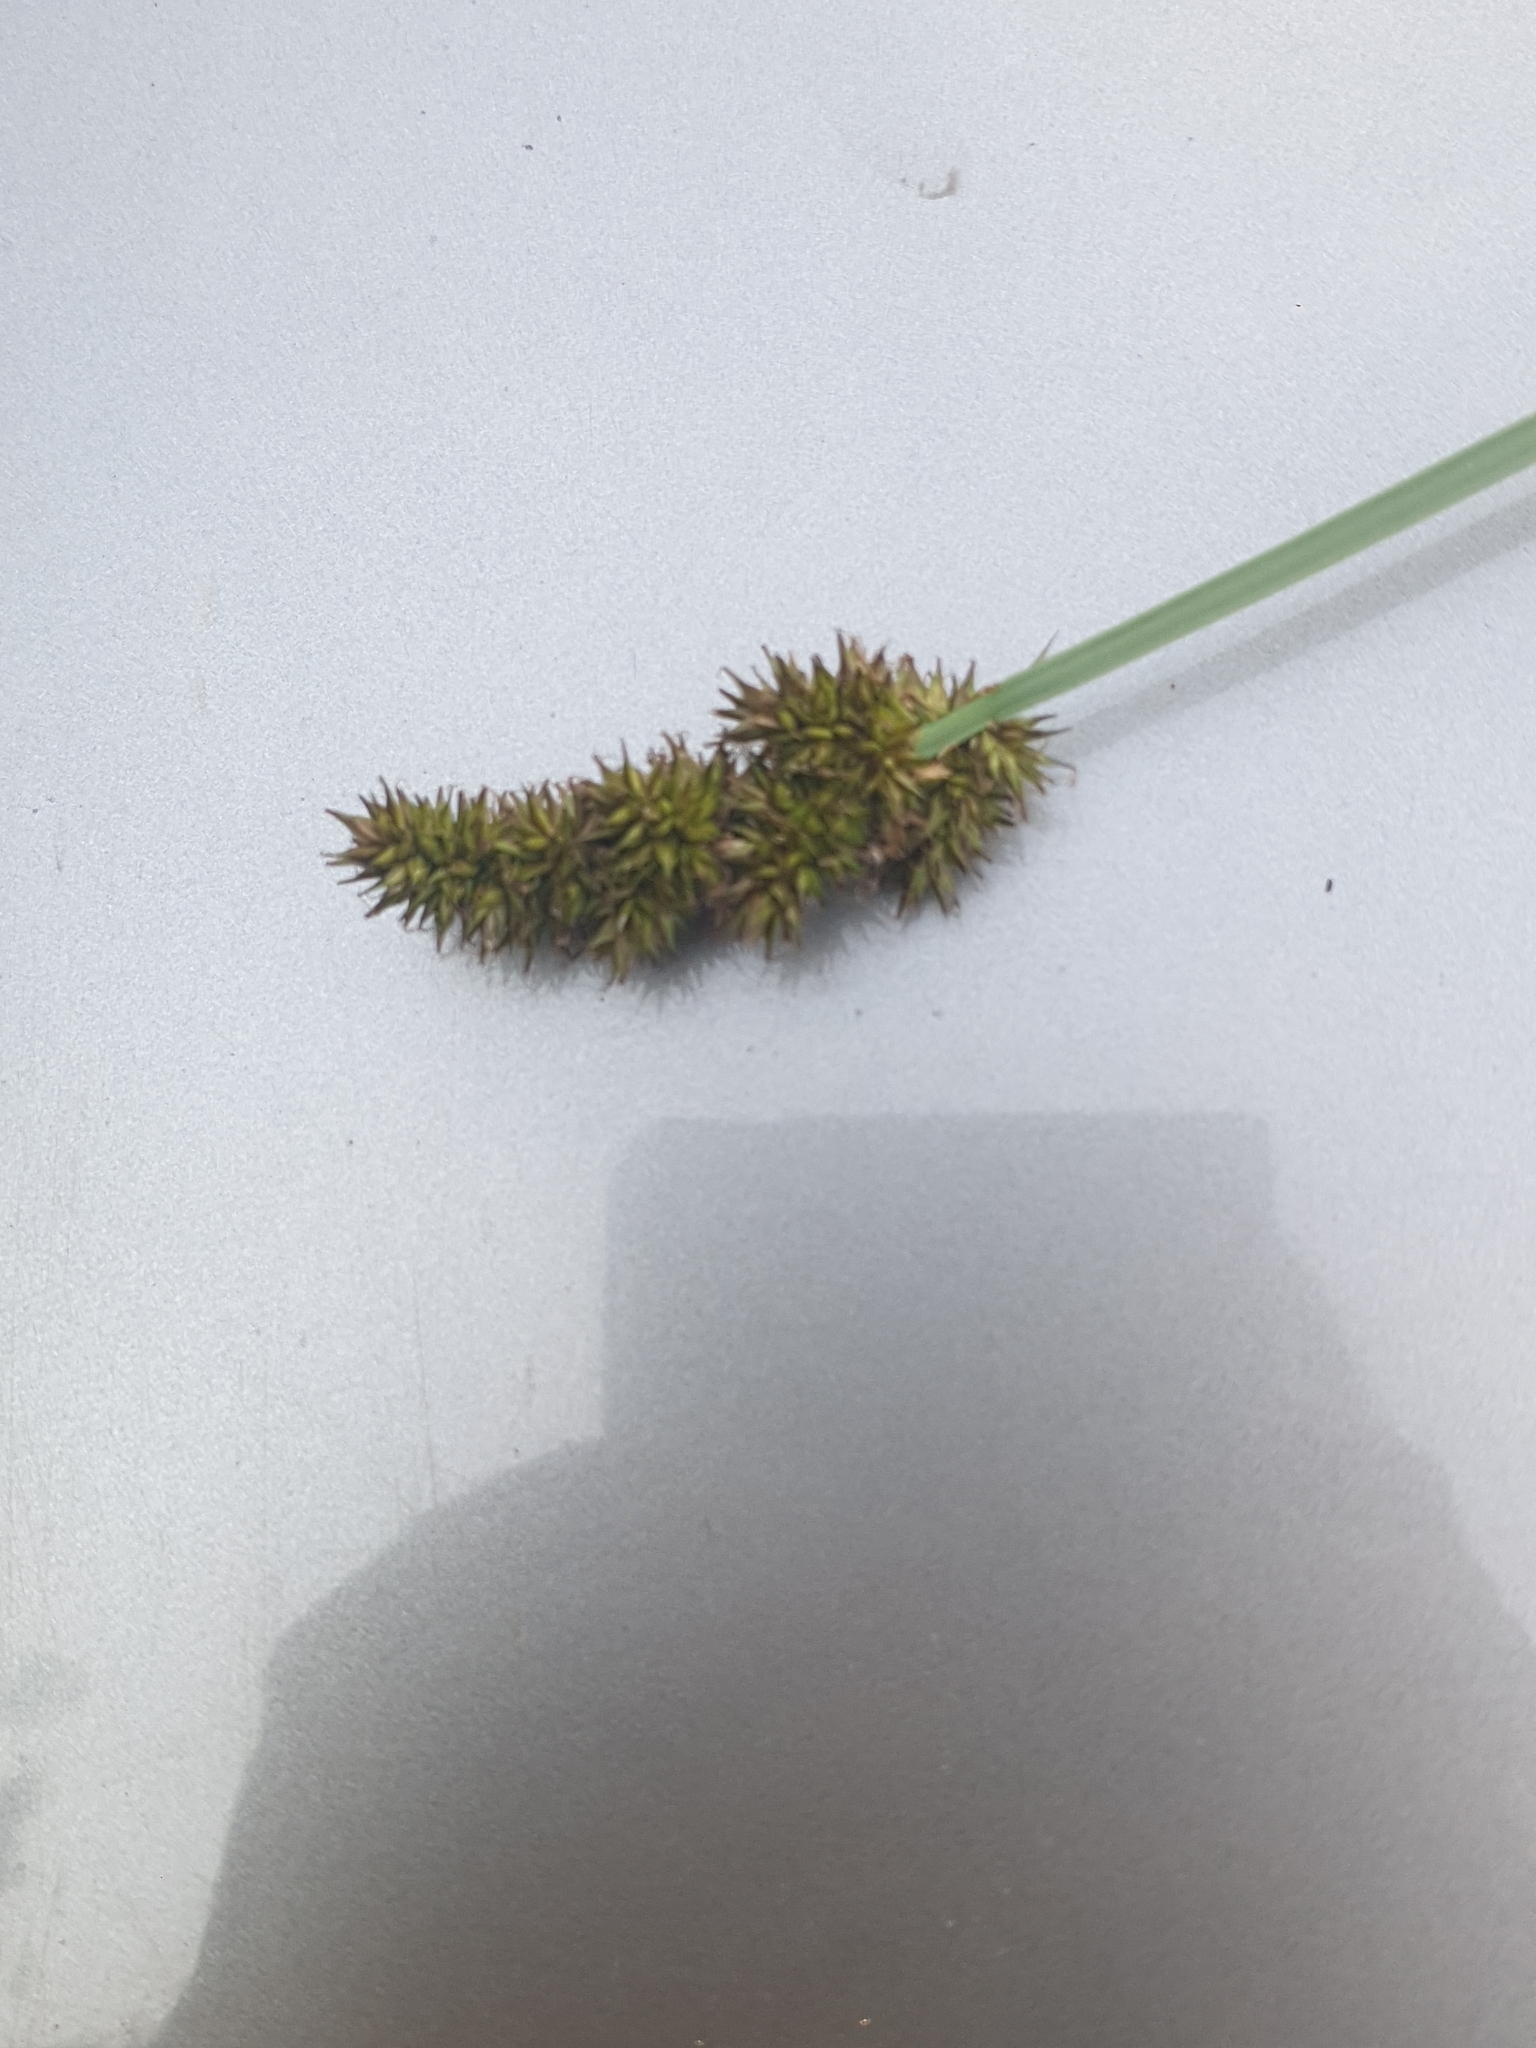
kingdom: Plantae
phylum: Tracheophyta
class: Liliopsida
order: Poales
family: Cyperaceae
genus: Carex
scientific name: Carex vulpina
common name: True fox-sedge
